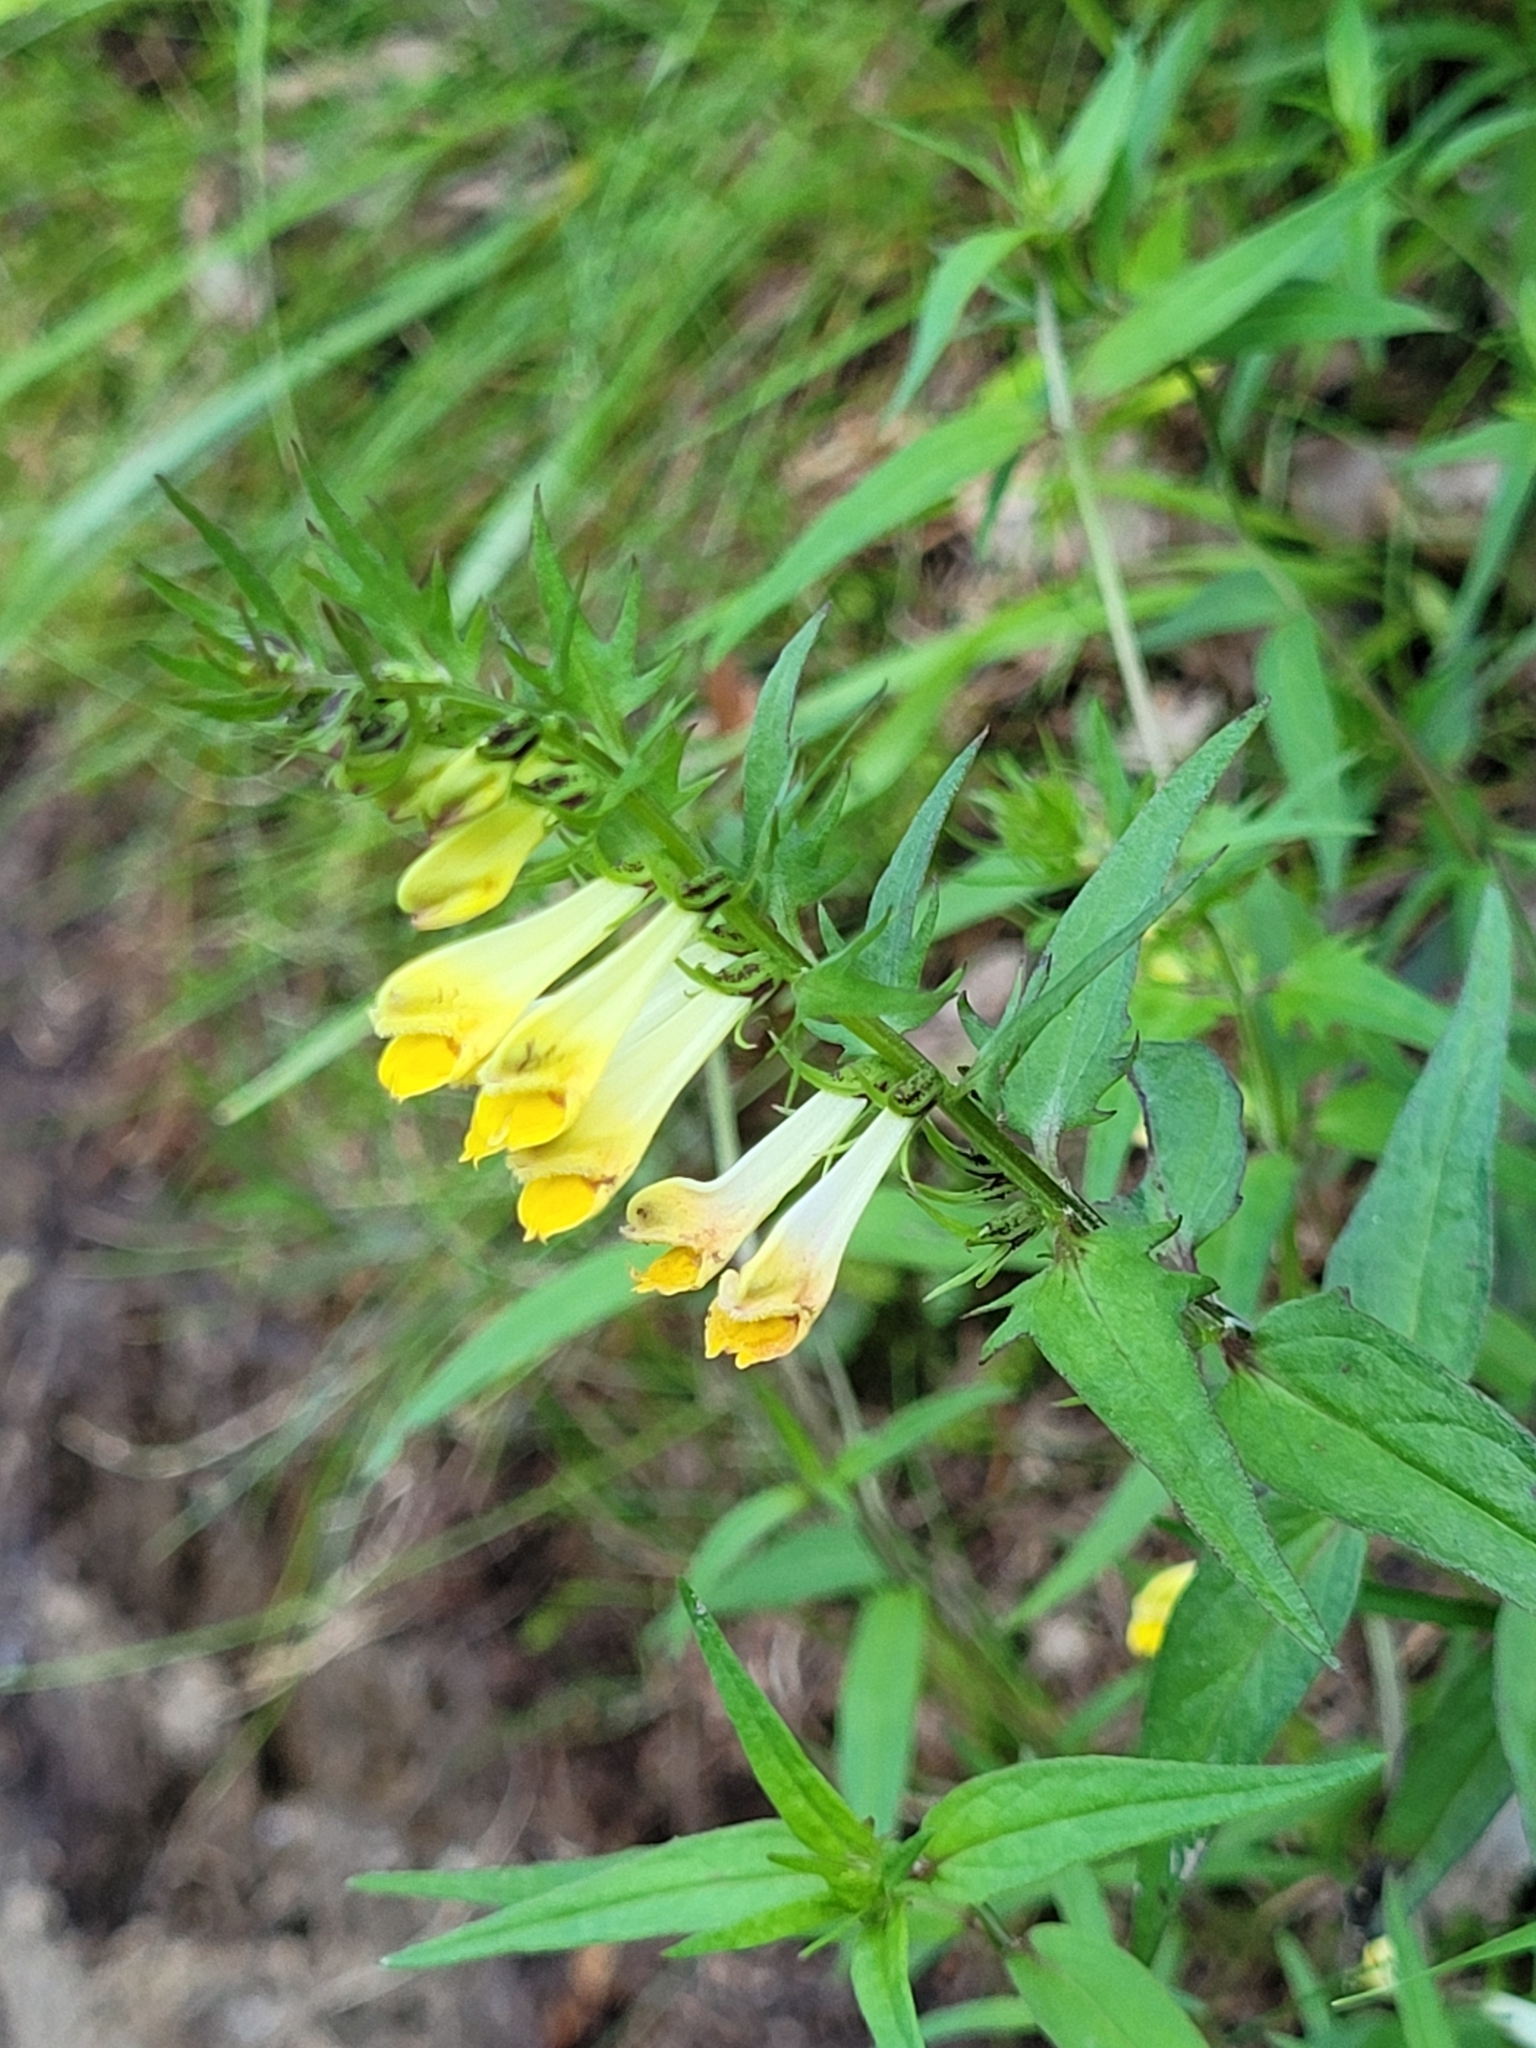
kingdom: Plantae
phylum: Tracheophyta
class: Magnoliopsida
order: Lamiales
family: Orobanchaceae
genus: Melampyrum
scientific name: Melampyrum pratense
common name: Common cow-wheat
